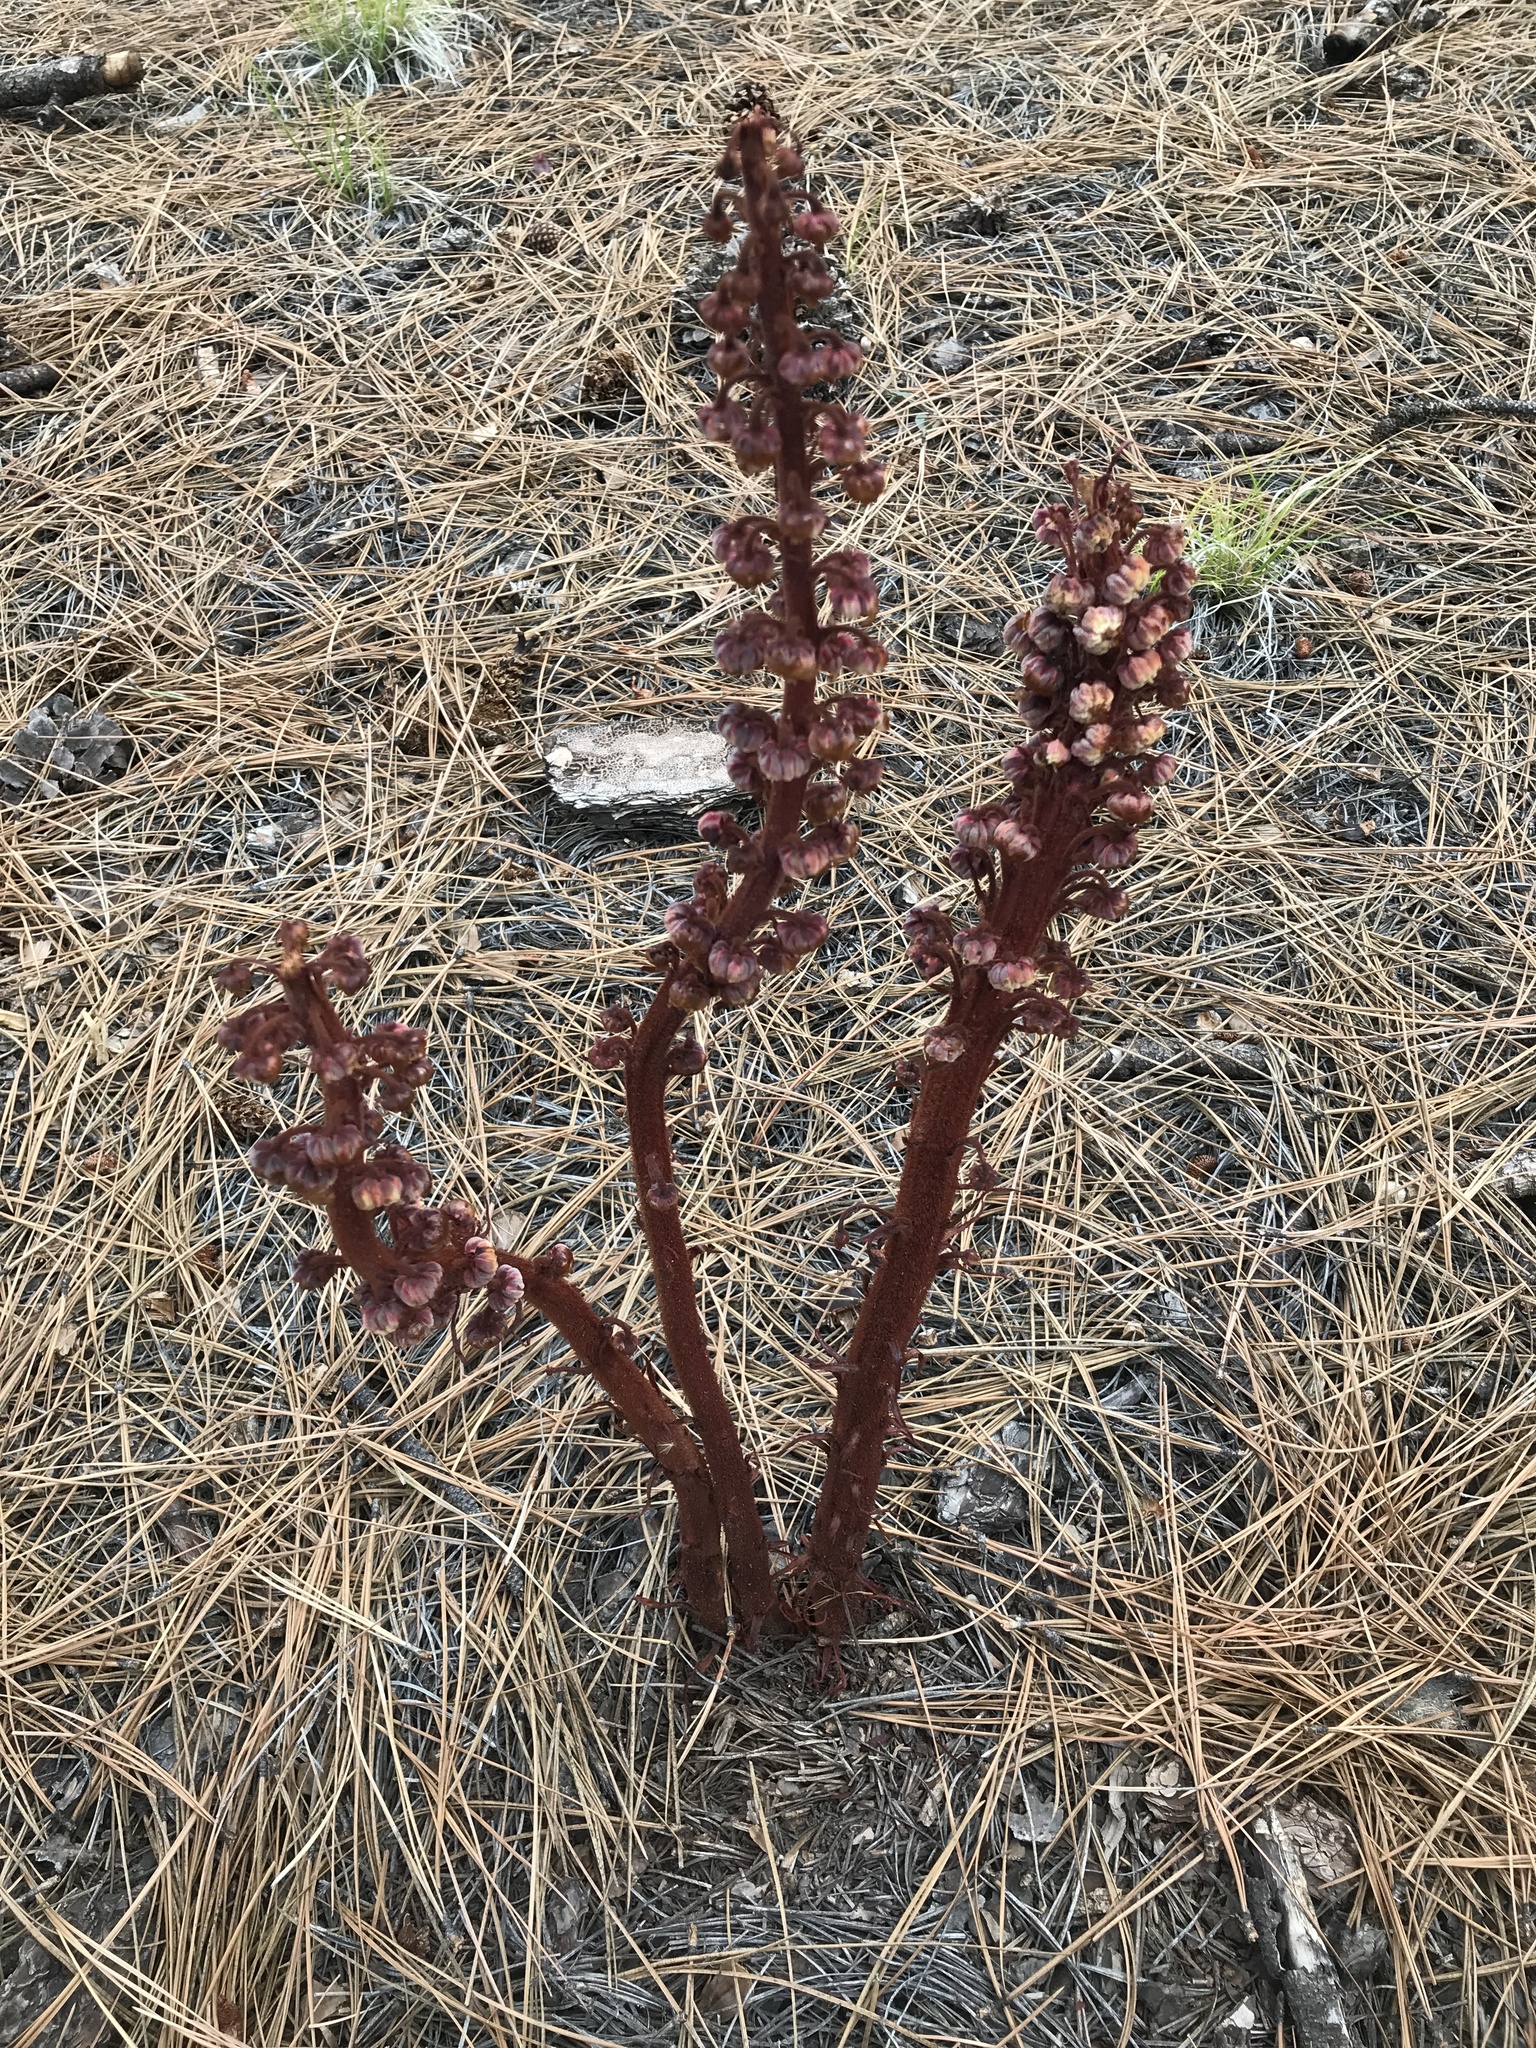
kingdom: Plantae
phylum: Tracheophyta
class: Magnoliopsida
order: Ericales
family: Ericaceae
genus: Pterospora
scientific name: Pterospora andromedea
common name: Giant bird's-nest
